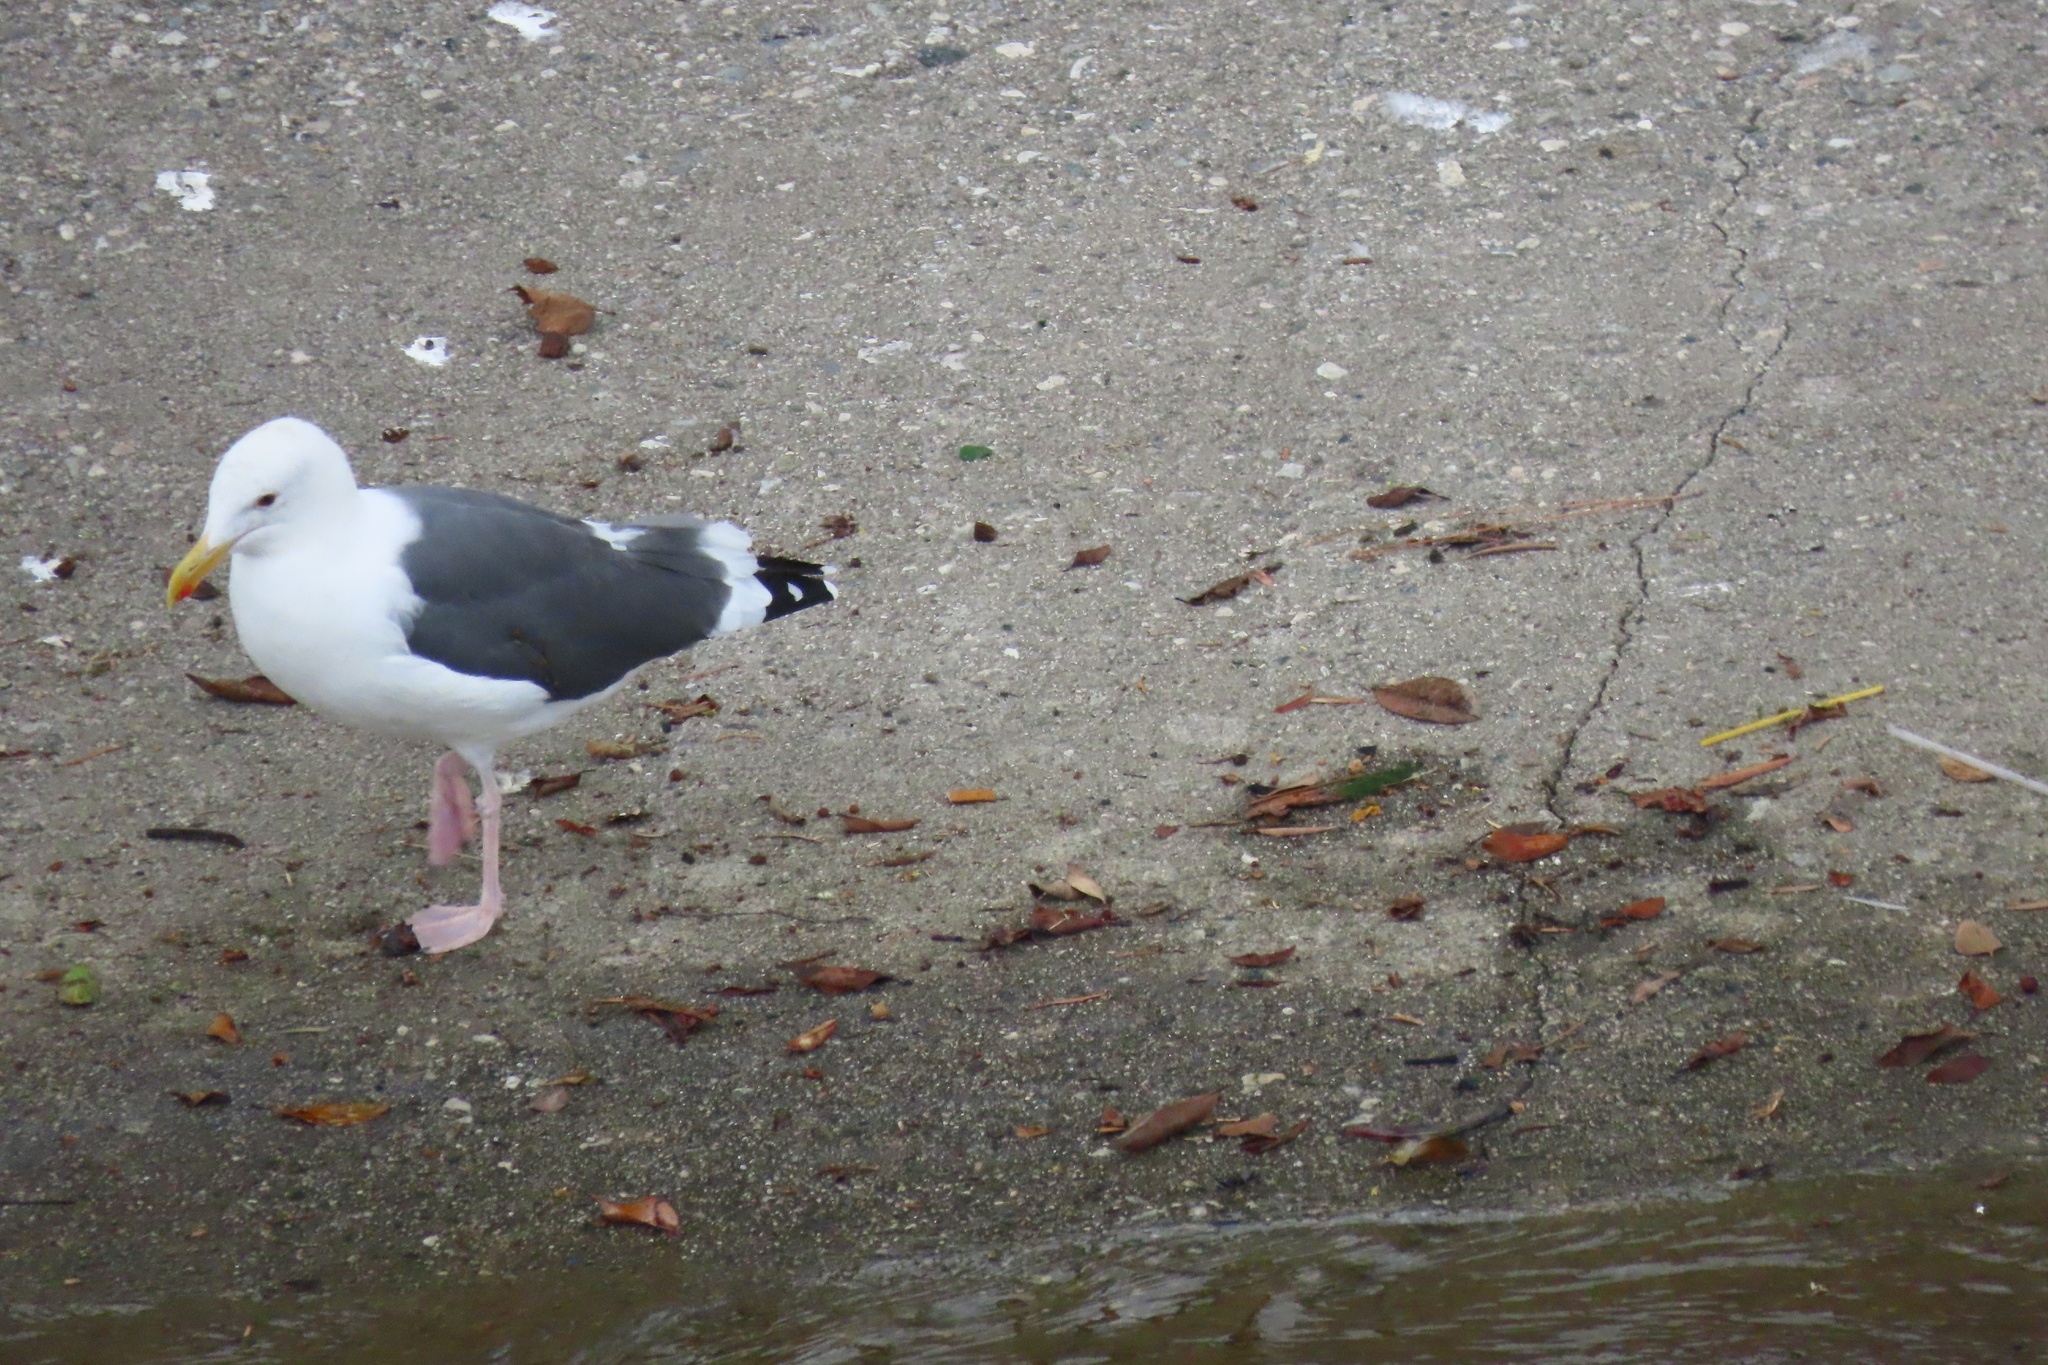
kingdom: Animalia
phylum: Chordata
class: Aves
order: Charadriiformes
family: Laridae
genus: Larus
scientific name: Larus occidentalis
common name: Western gull
